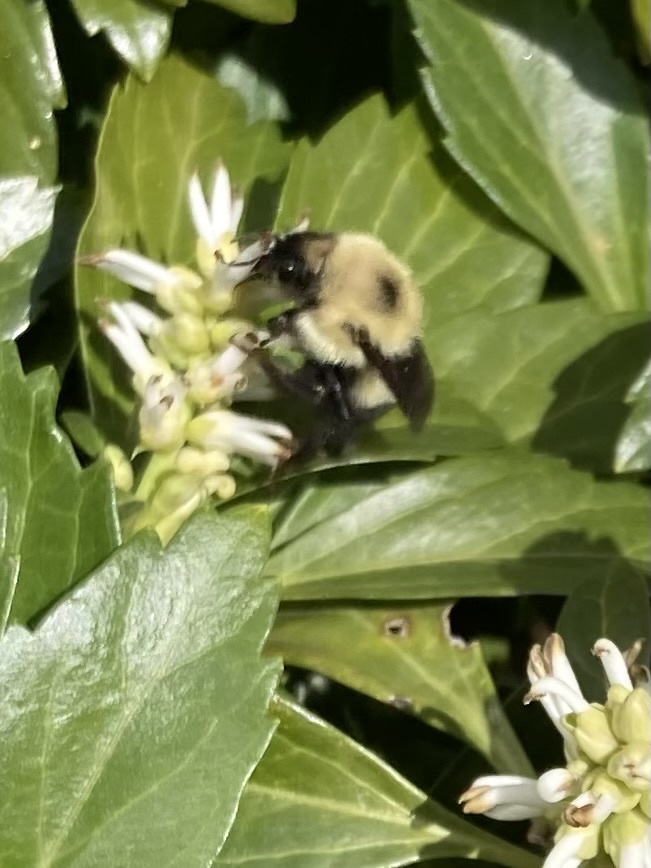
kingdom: Animalia
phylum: Arthropoda
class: Insecta
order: Hymenoptera
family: Apidae
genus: Bombus
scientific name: Bombus bimaculatus
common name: Two-spotted bumble bee
